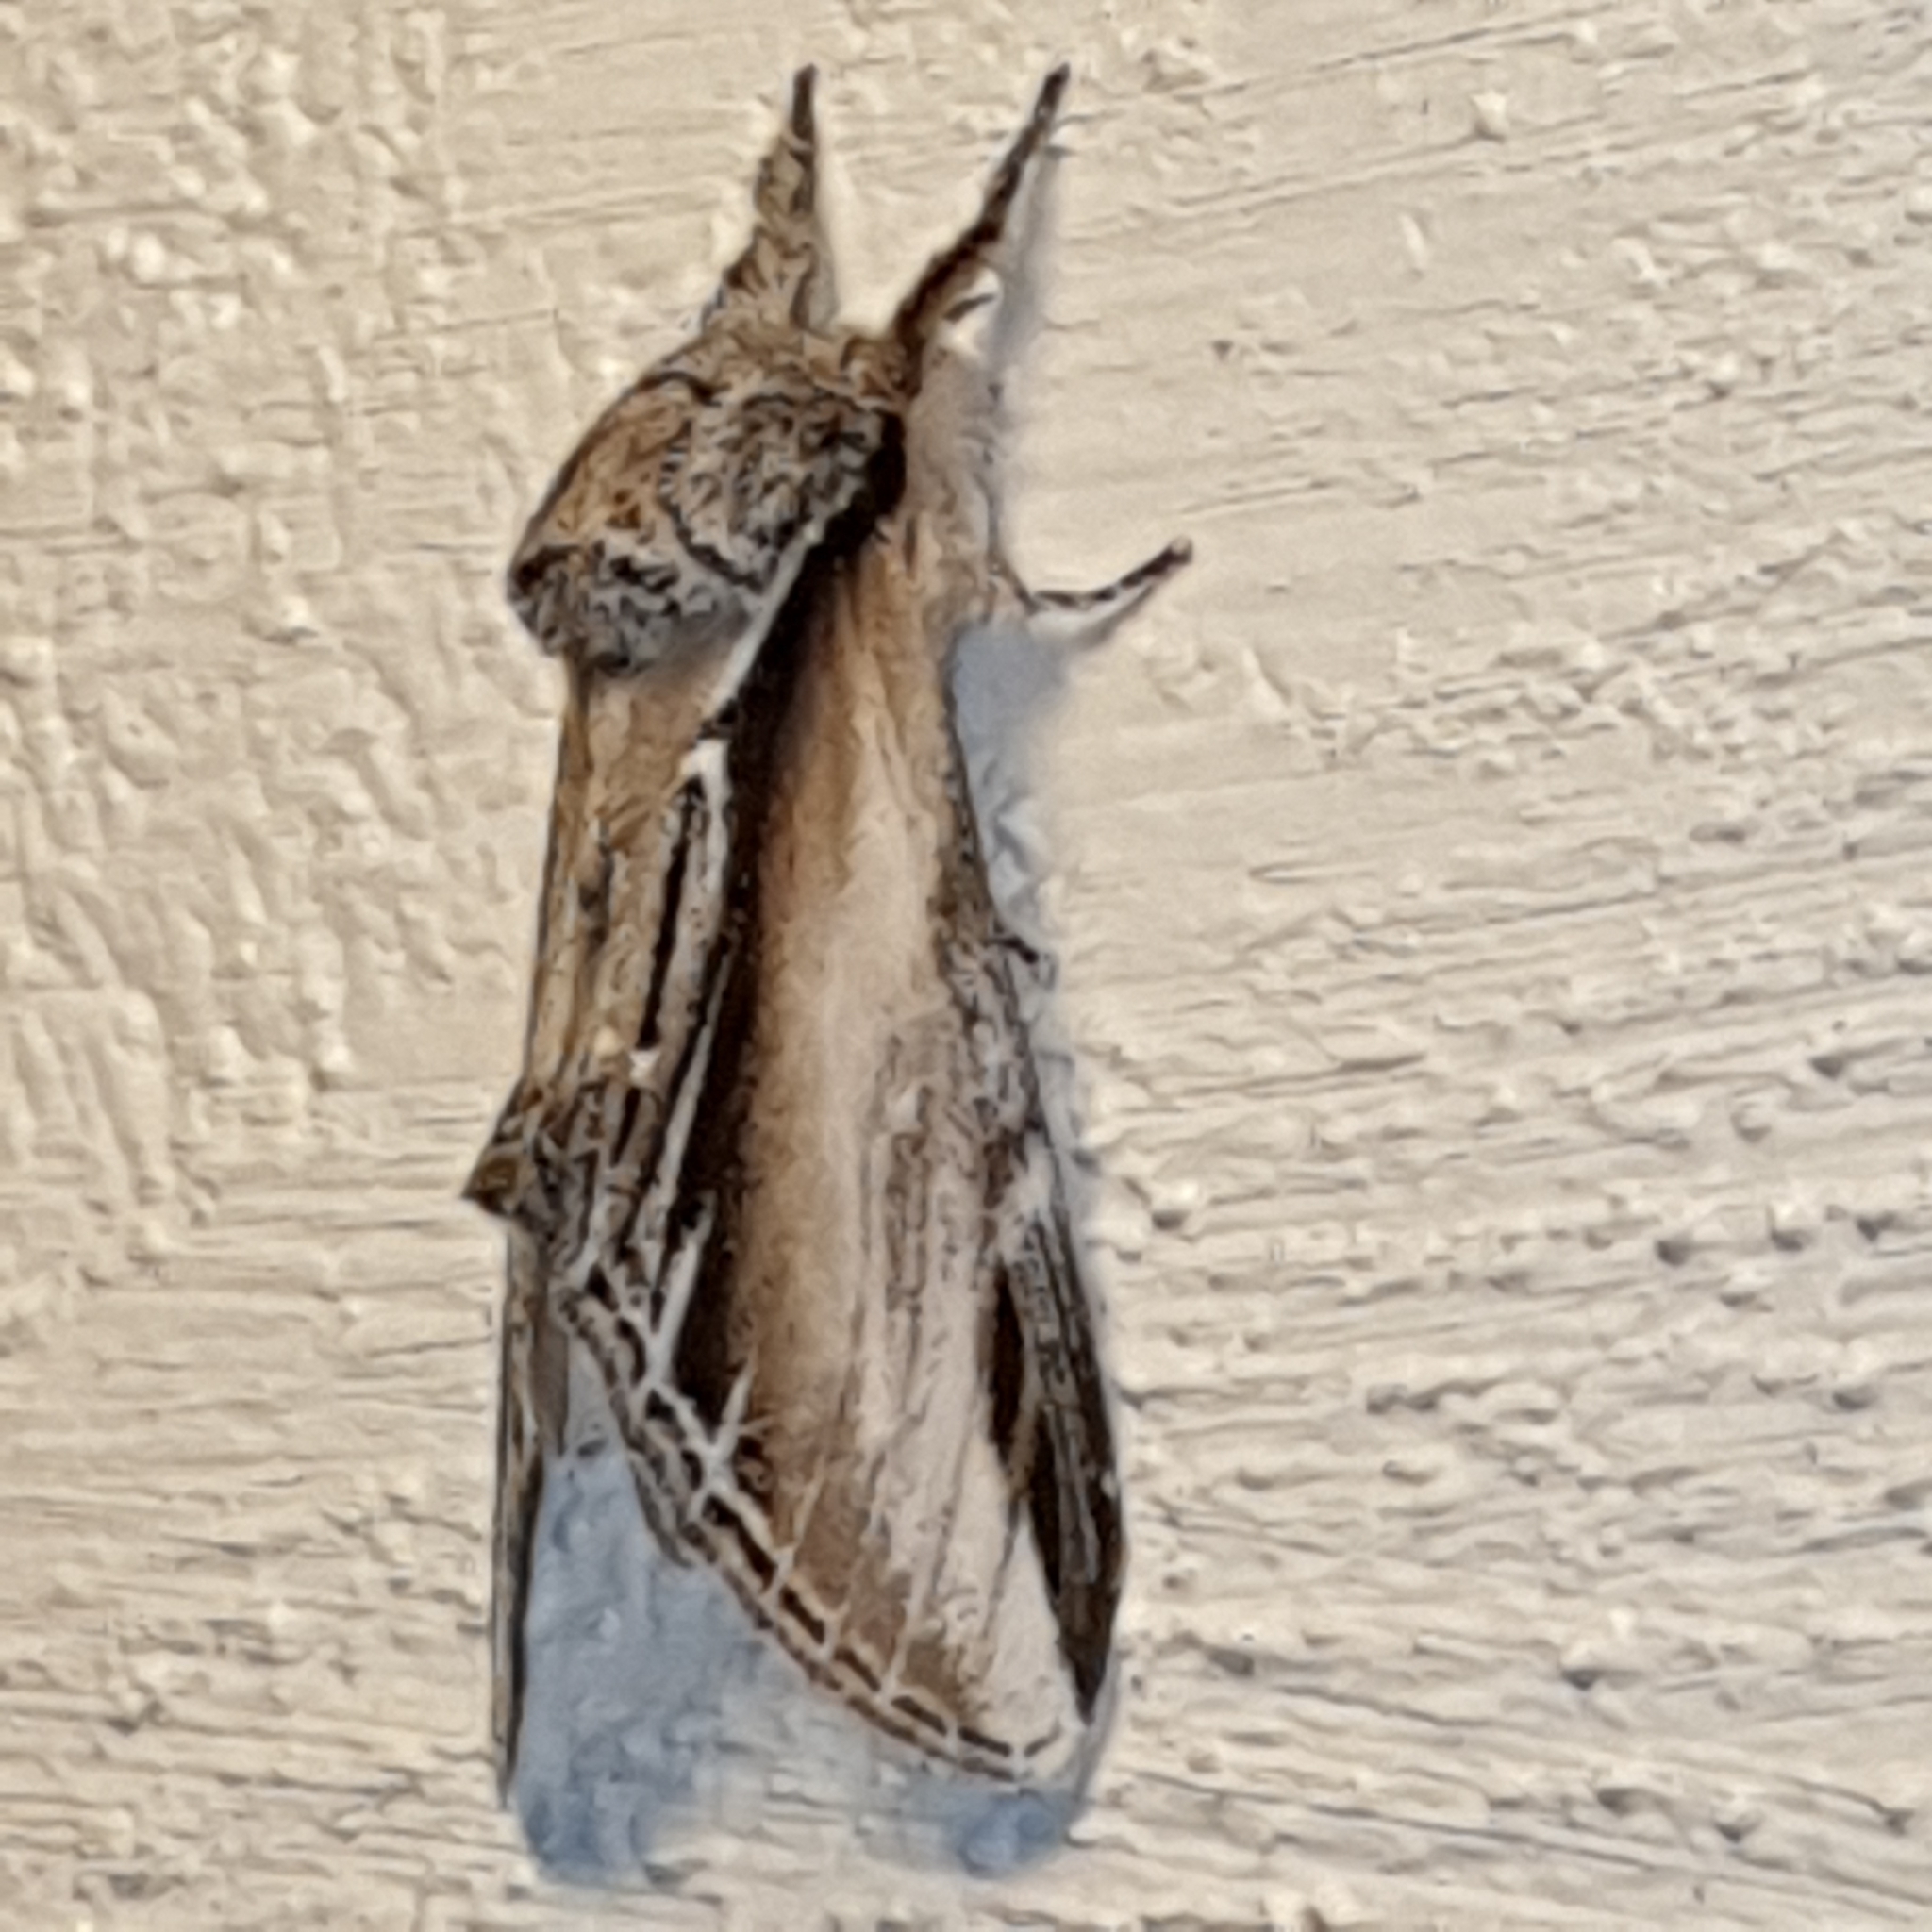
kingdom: Animalia
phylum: Arthropoda
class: Insecta
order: Lepidoptera
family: Notodontidae
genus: Pheosia
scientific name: Pheosia tremula
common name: Swallow prominent
